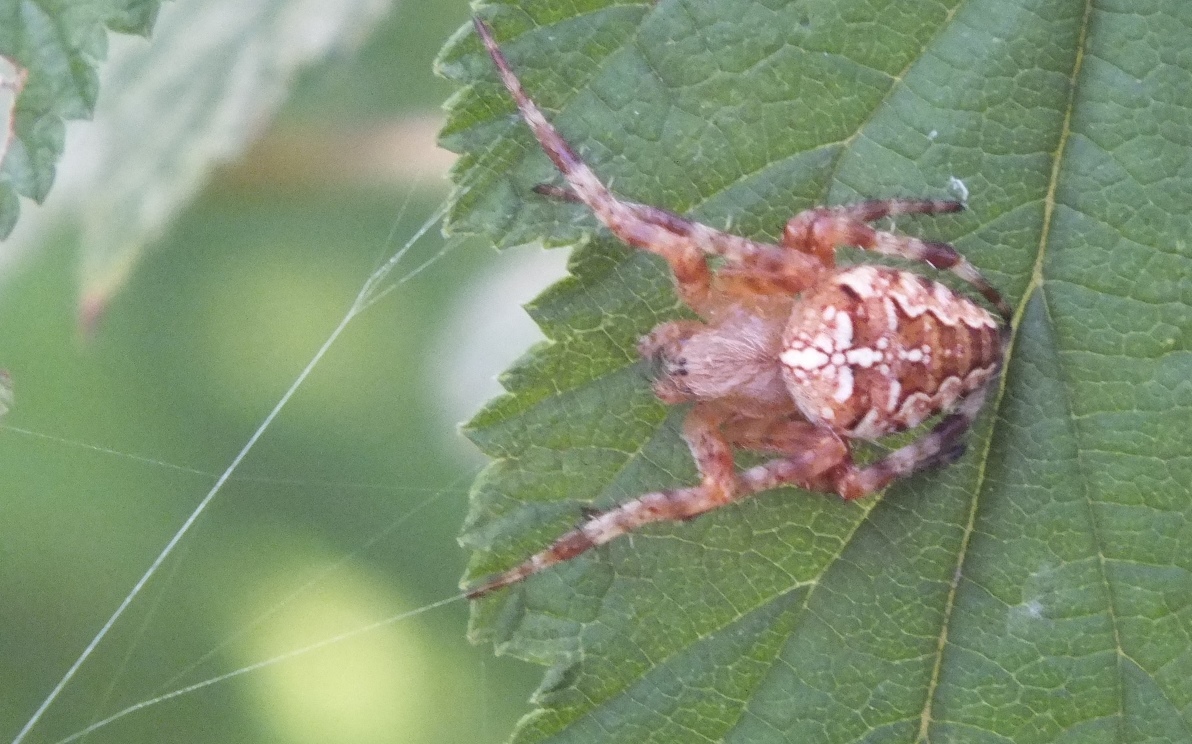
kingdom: Animalia
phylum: Arthropoda
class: Arachnida
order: Araneae
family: Araneidae
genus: Araneus
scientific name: Araneus diadematus
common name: Cross orbweaver
